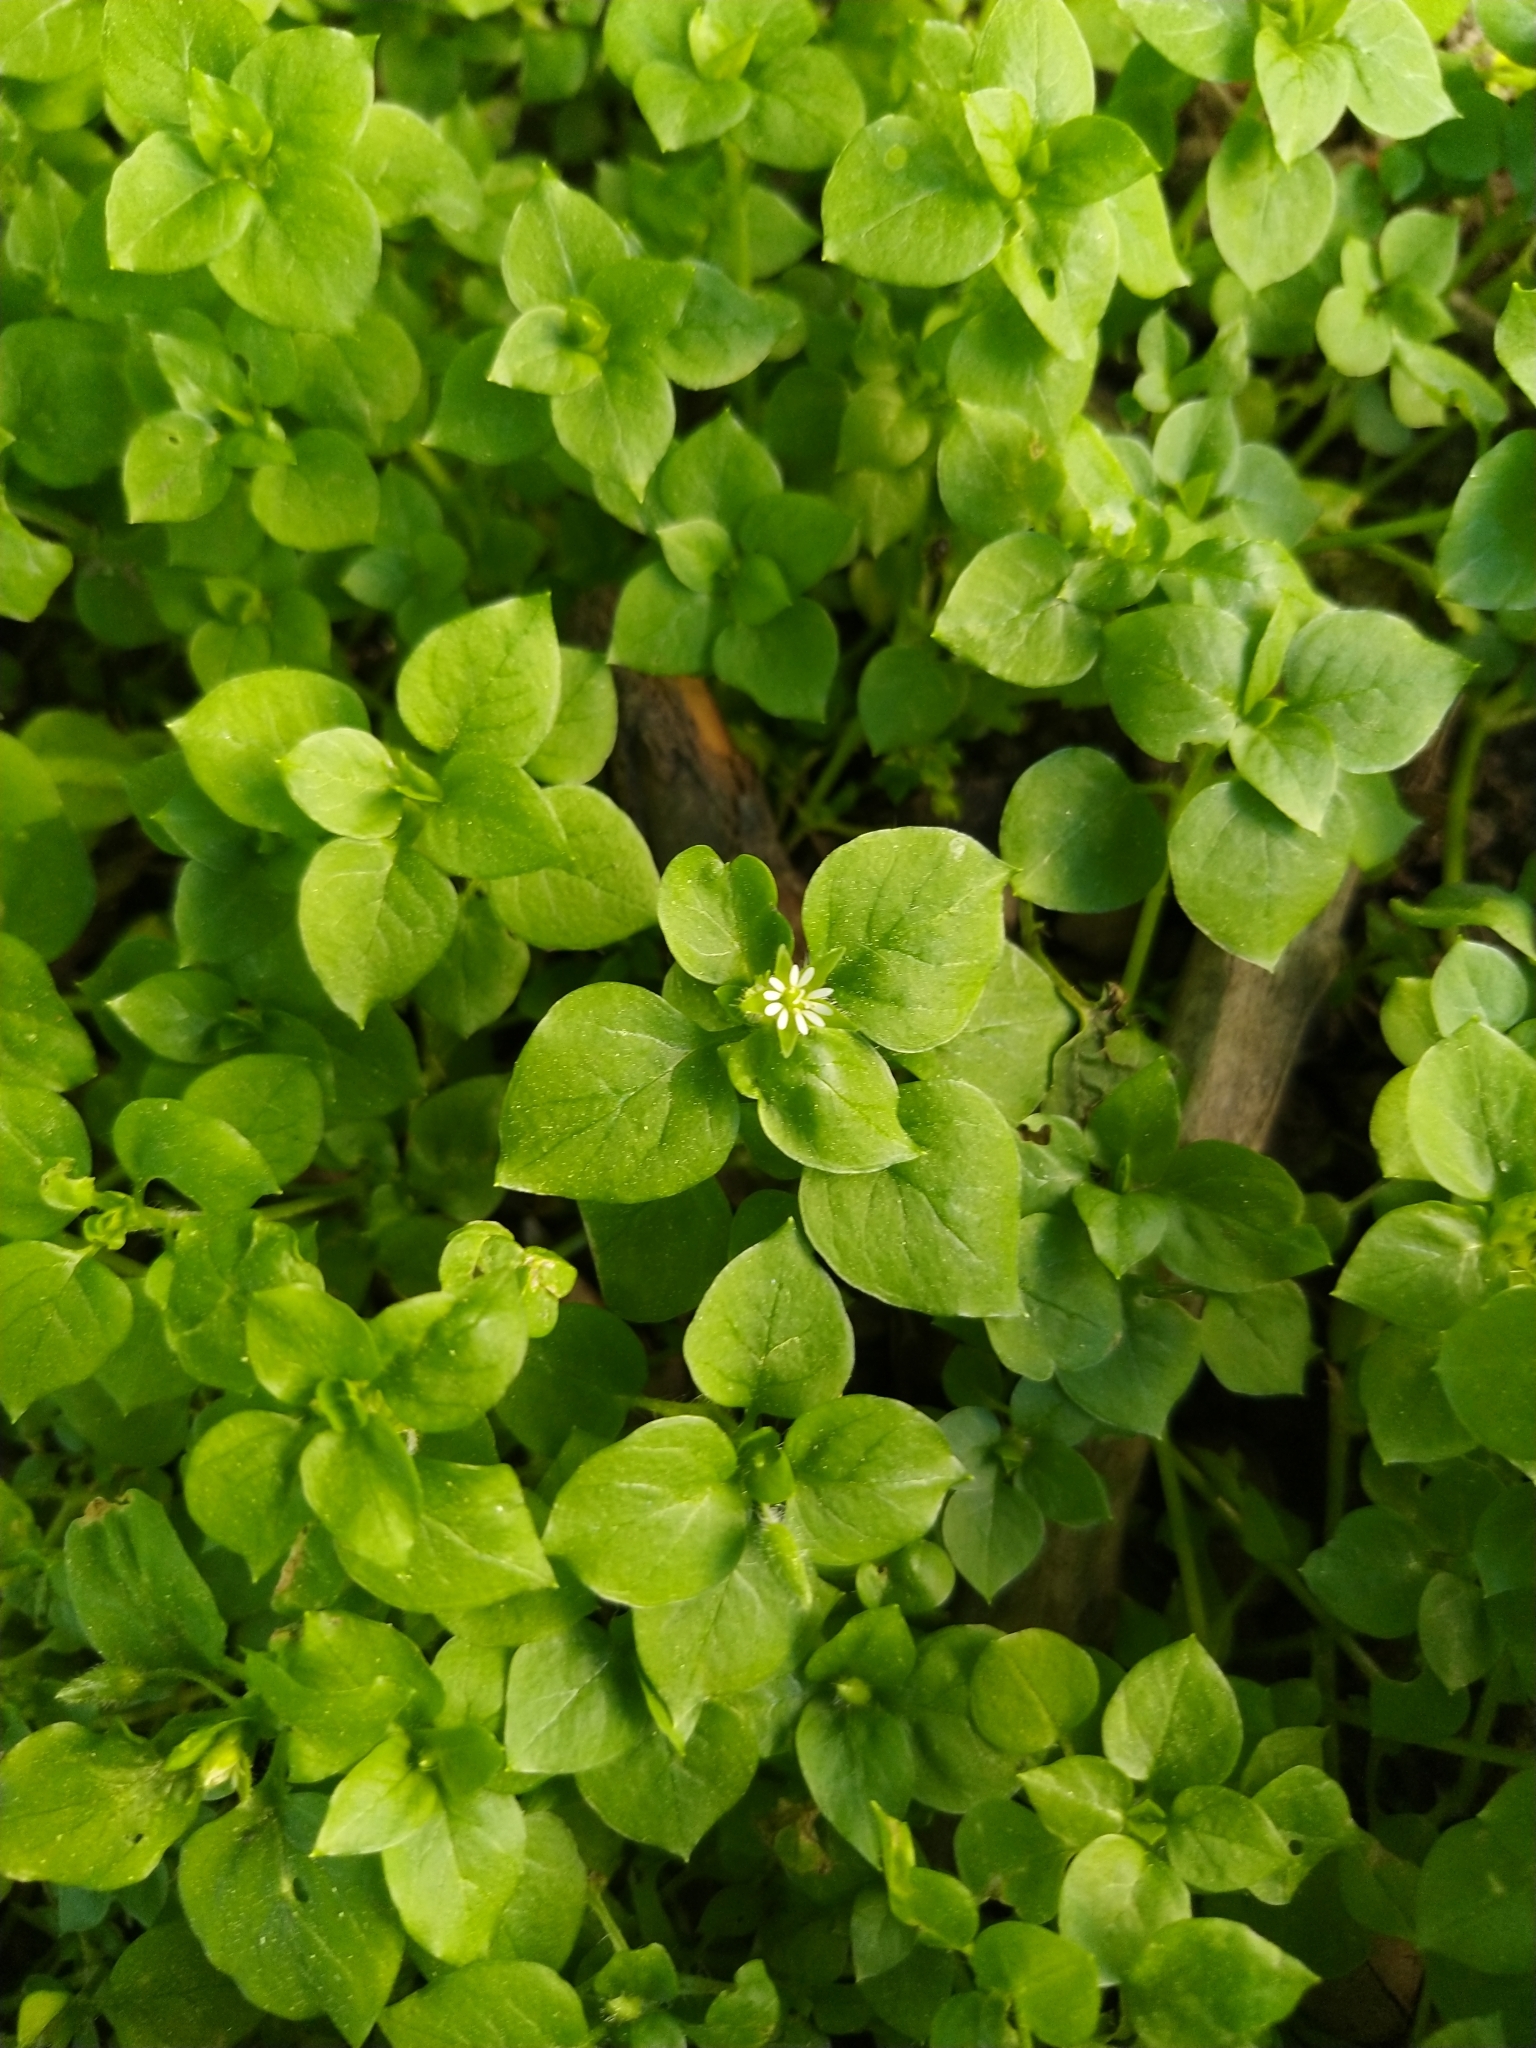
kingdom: Plantae
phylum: Tracheophyta
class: Magnoliopsida
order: Caryophyllales
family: Caryophyllaceae
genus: Stellaria
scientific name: Stellaria media
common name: Common chickweed
